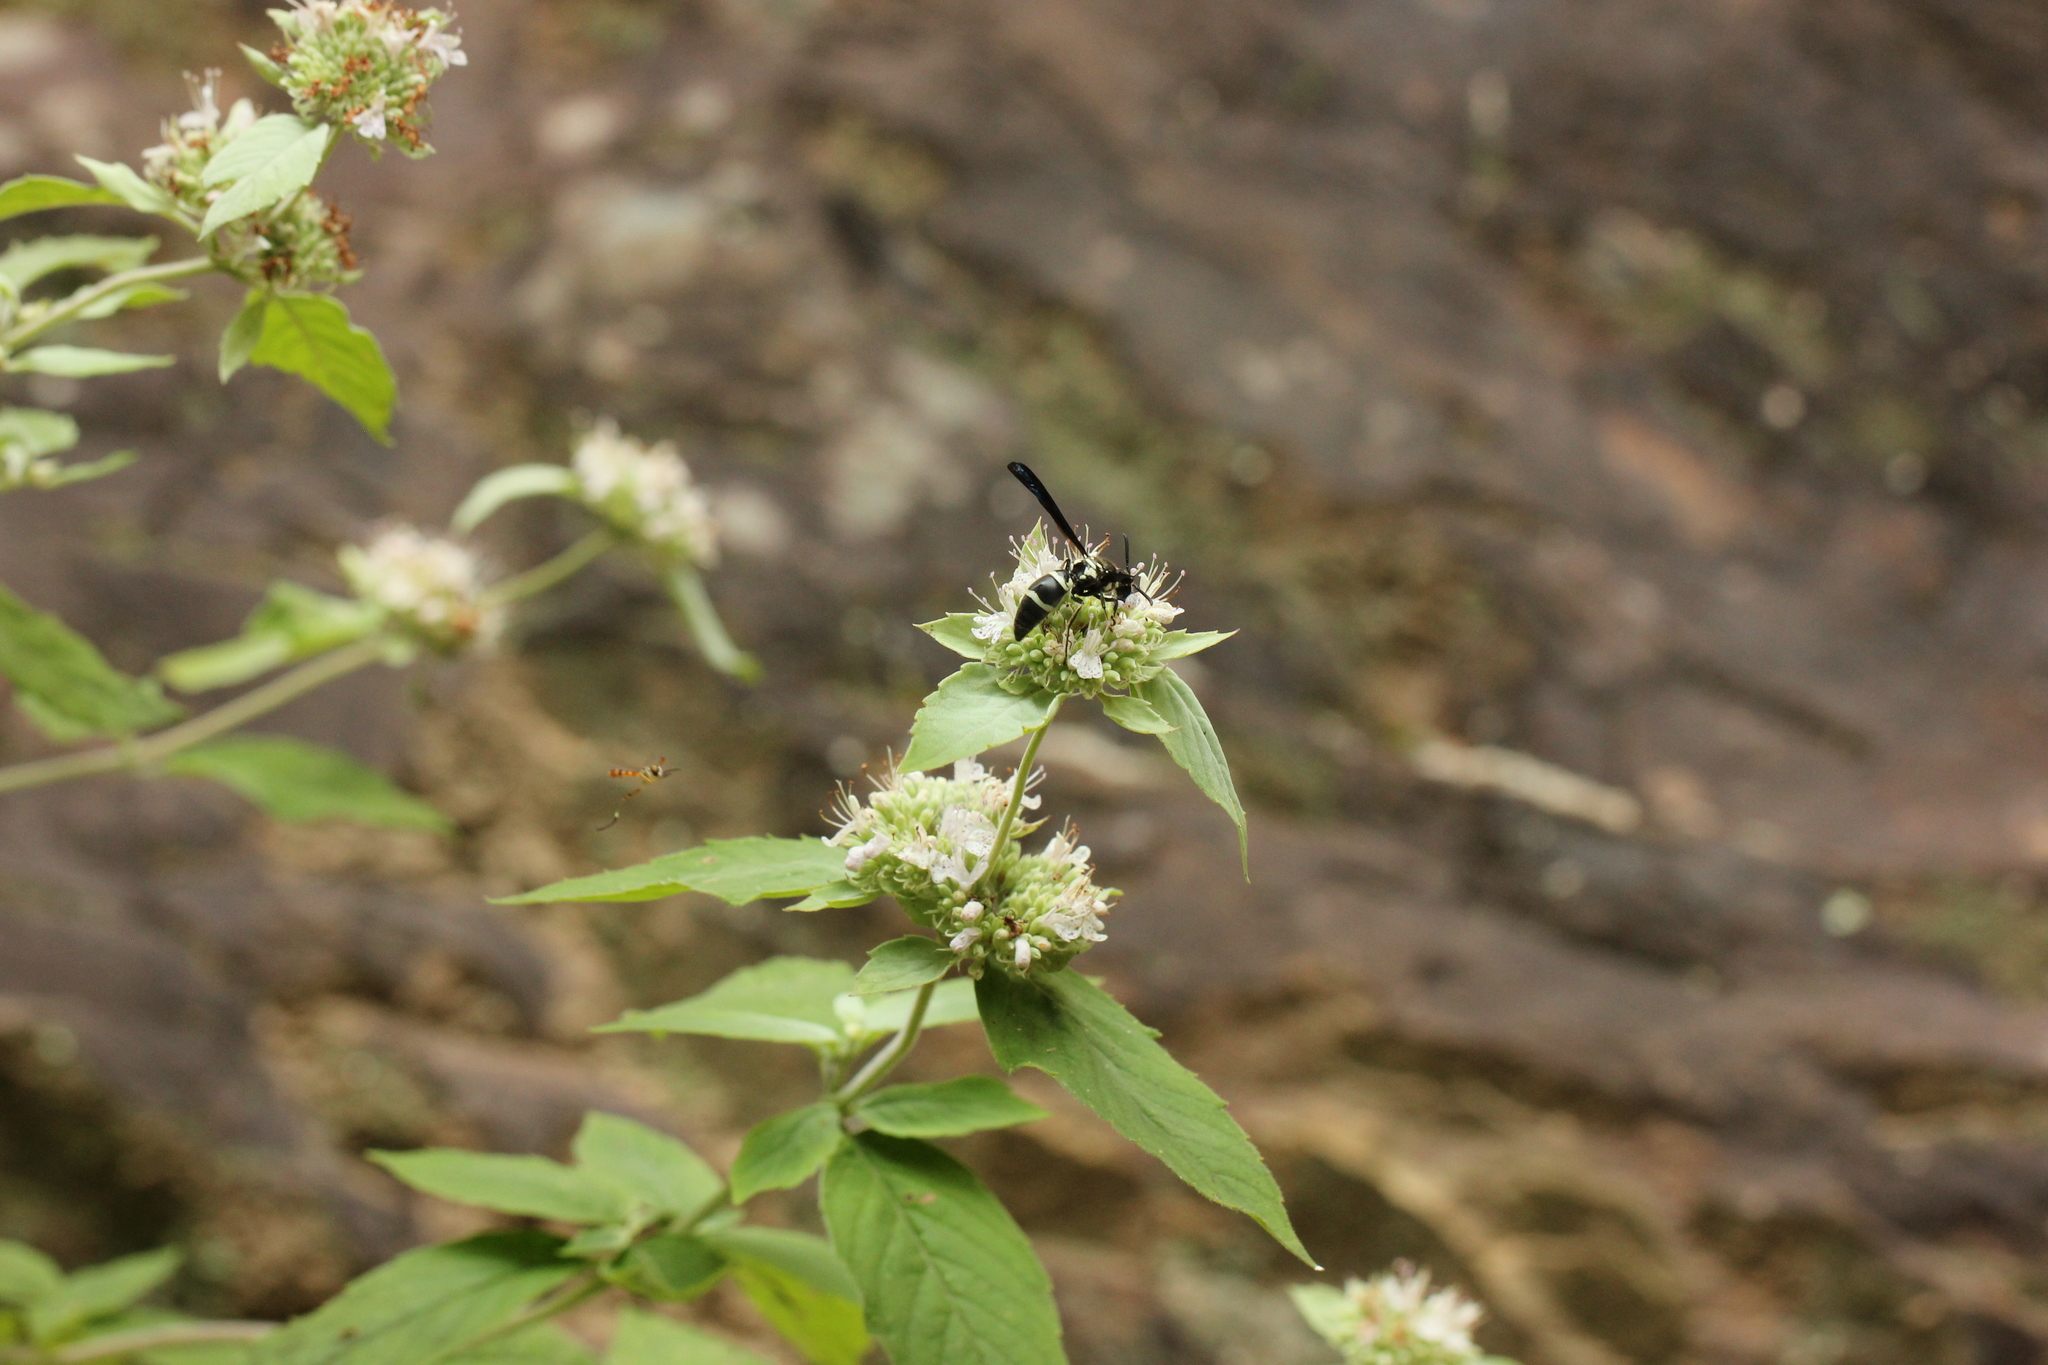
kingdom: Animalia
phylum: Arthropoda
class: Insecta
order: Hymenoptera
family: Eumenidae
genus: Pseudodynerus
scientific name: Pseudodynerus quadrisectus
